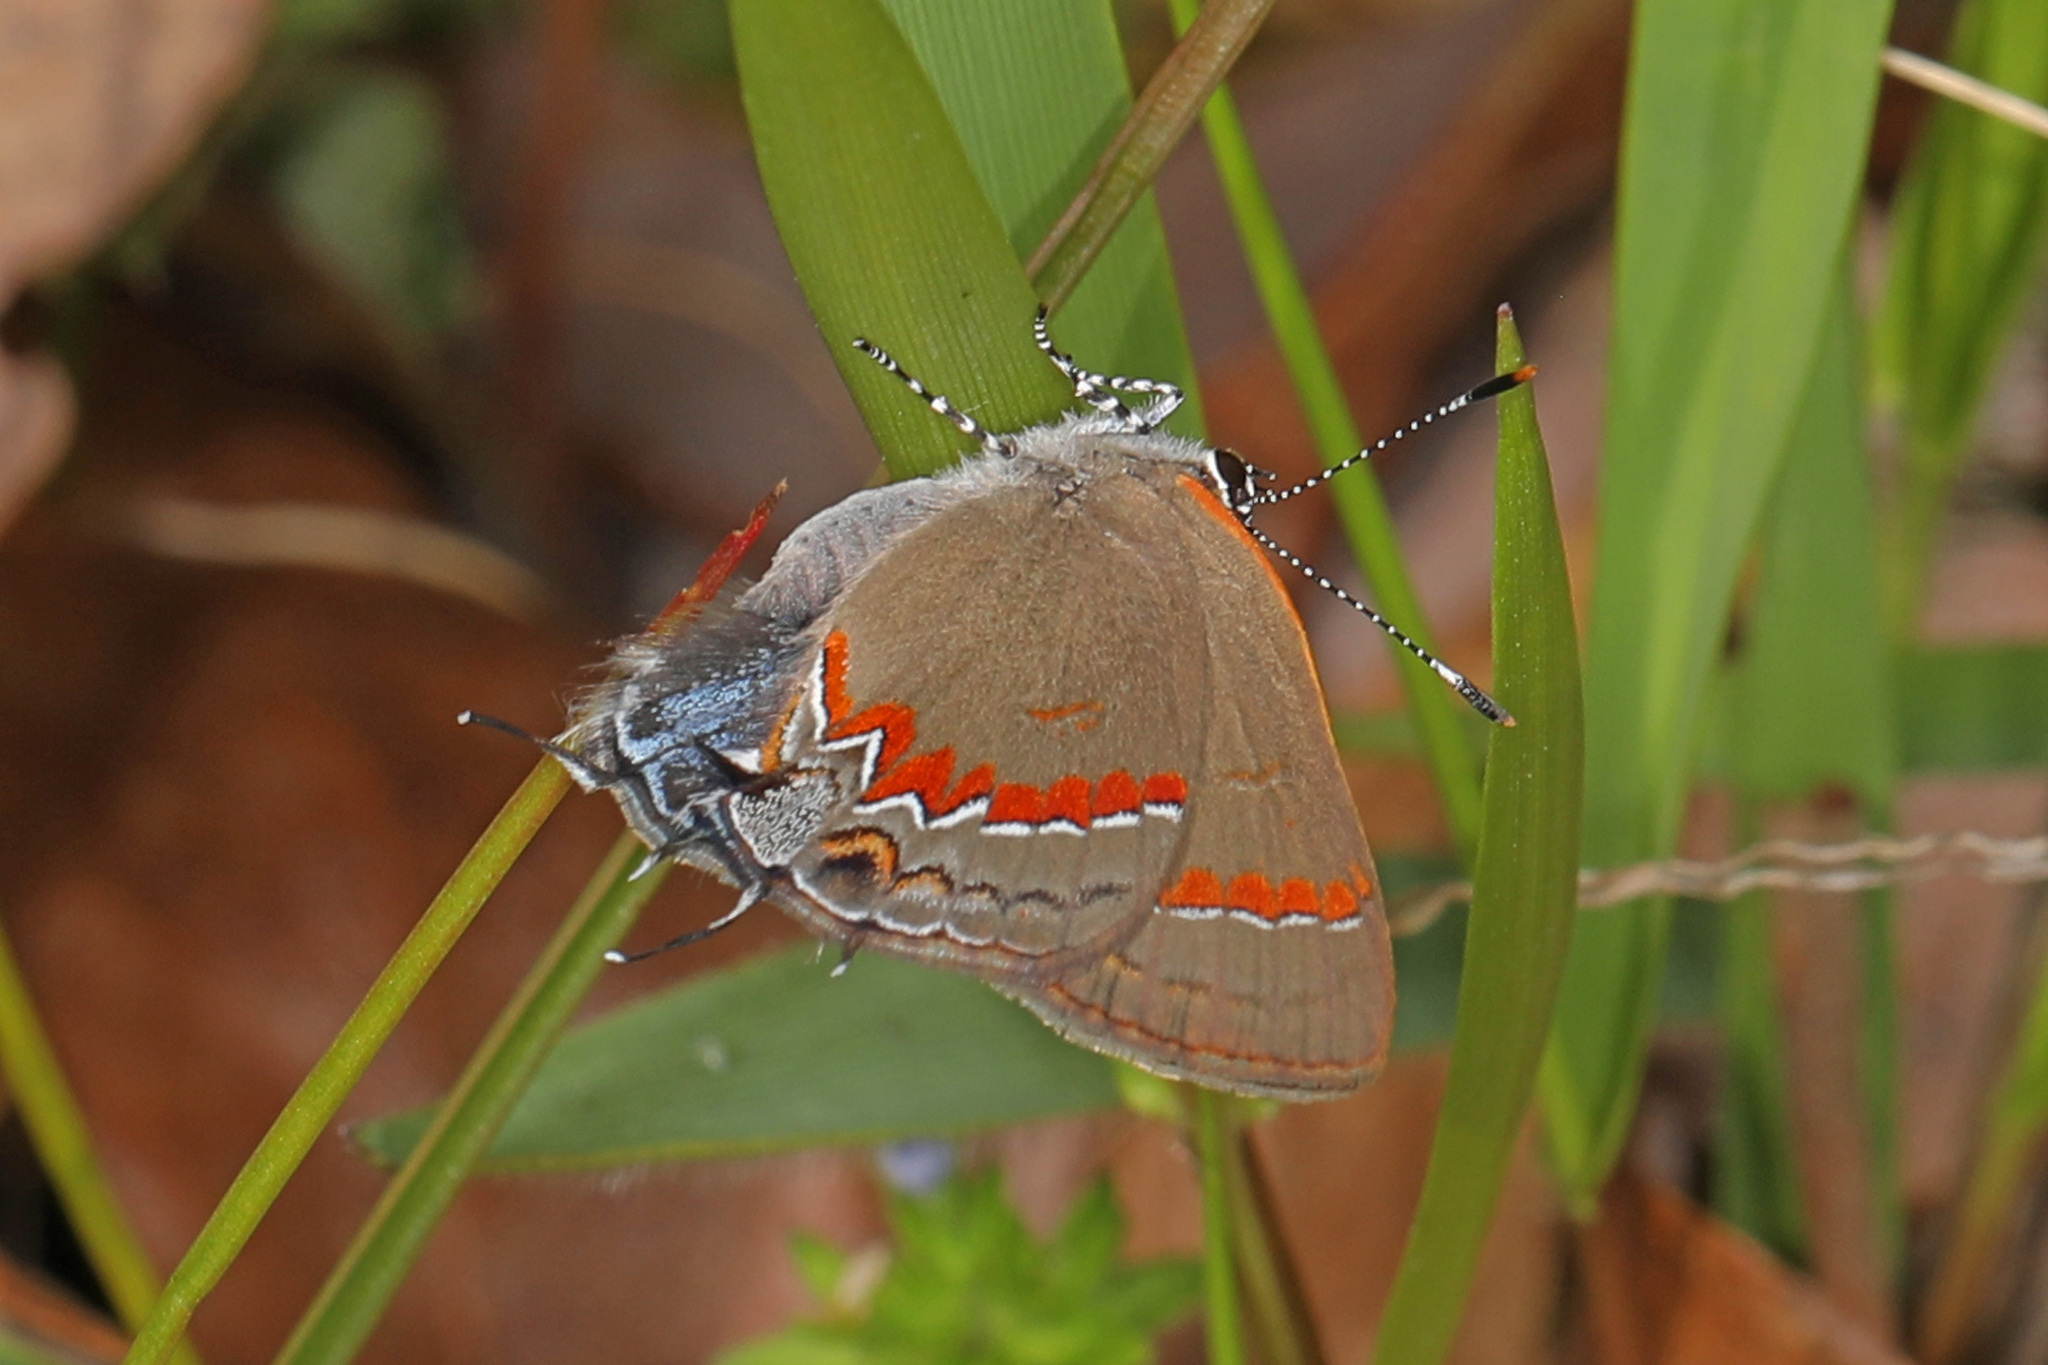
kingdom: Animalia
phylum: Arthropoda
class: Insecta
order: Lepidoptera
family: Lycaenidae
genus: Calycopis
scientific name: Calycopis cecrops
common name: Red-banded hairstreak
